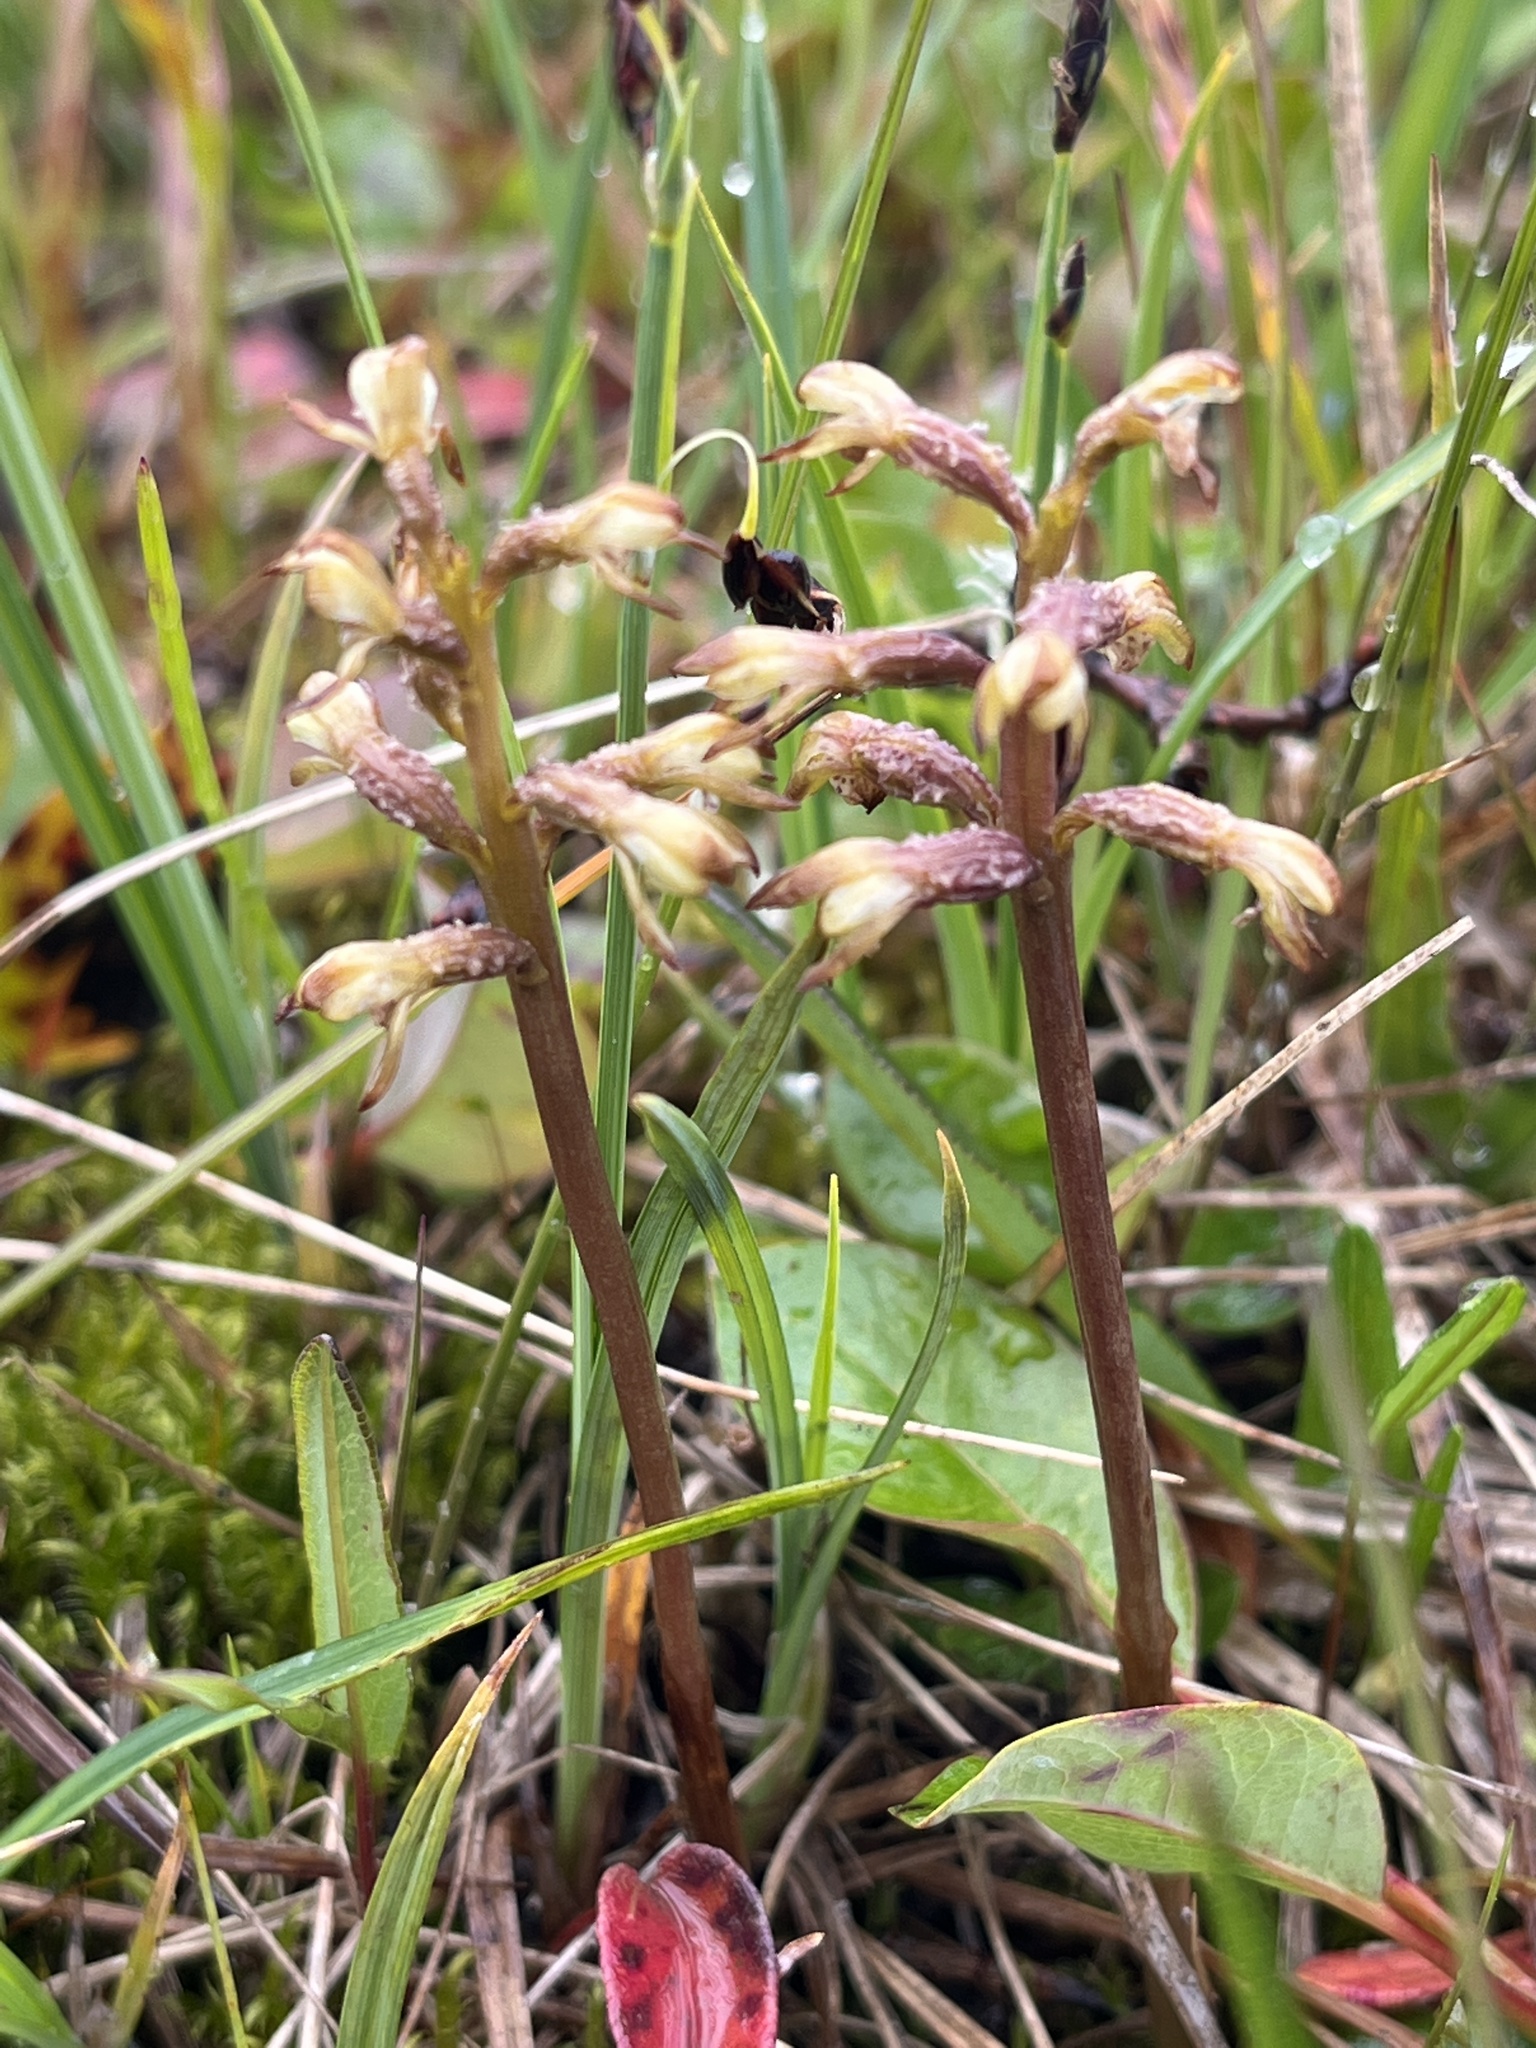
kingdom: Plantae
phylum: Tracheophyta
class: Liliopsida
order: Asparagales
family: Orchidaceae
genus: Corallorhiza
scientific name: Corallorhiza trifida
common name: Yellow coralroot
